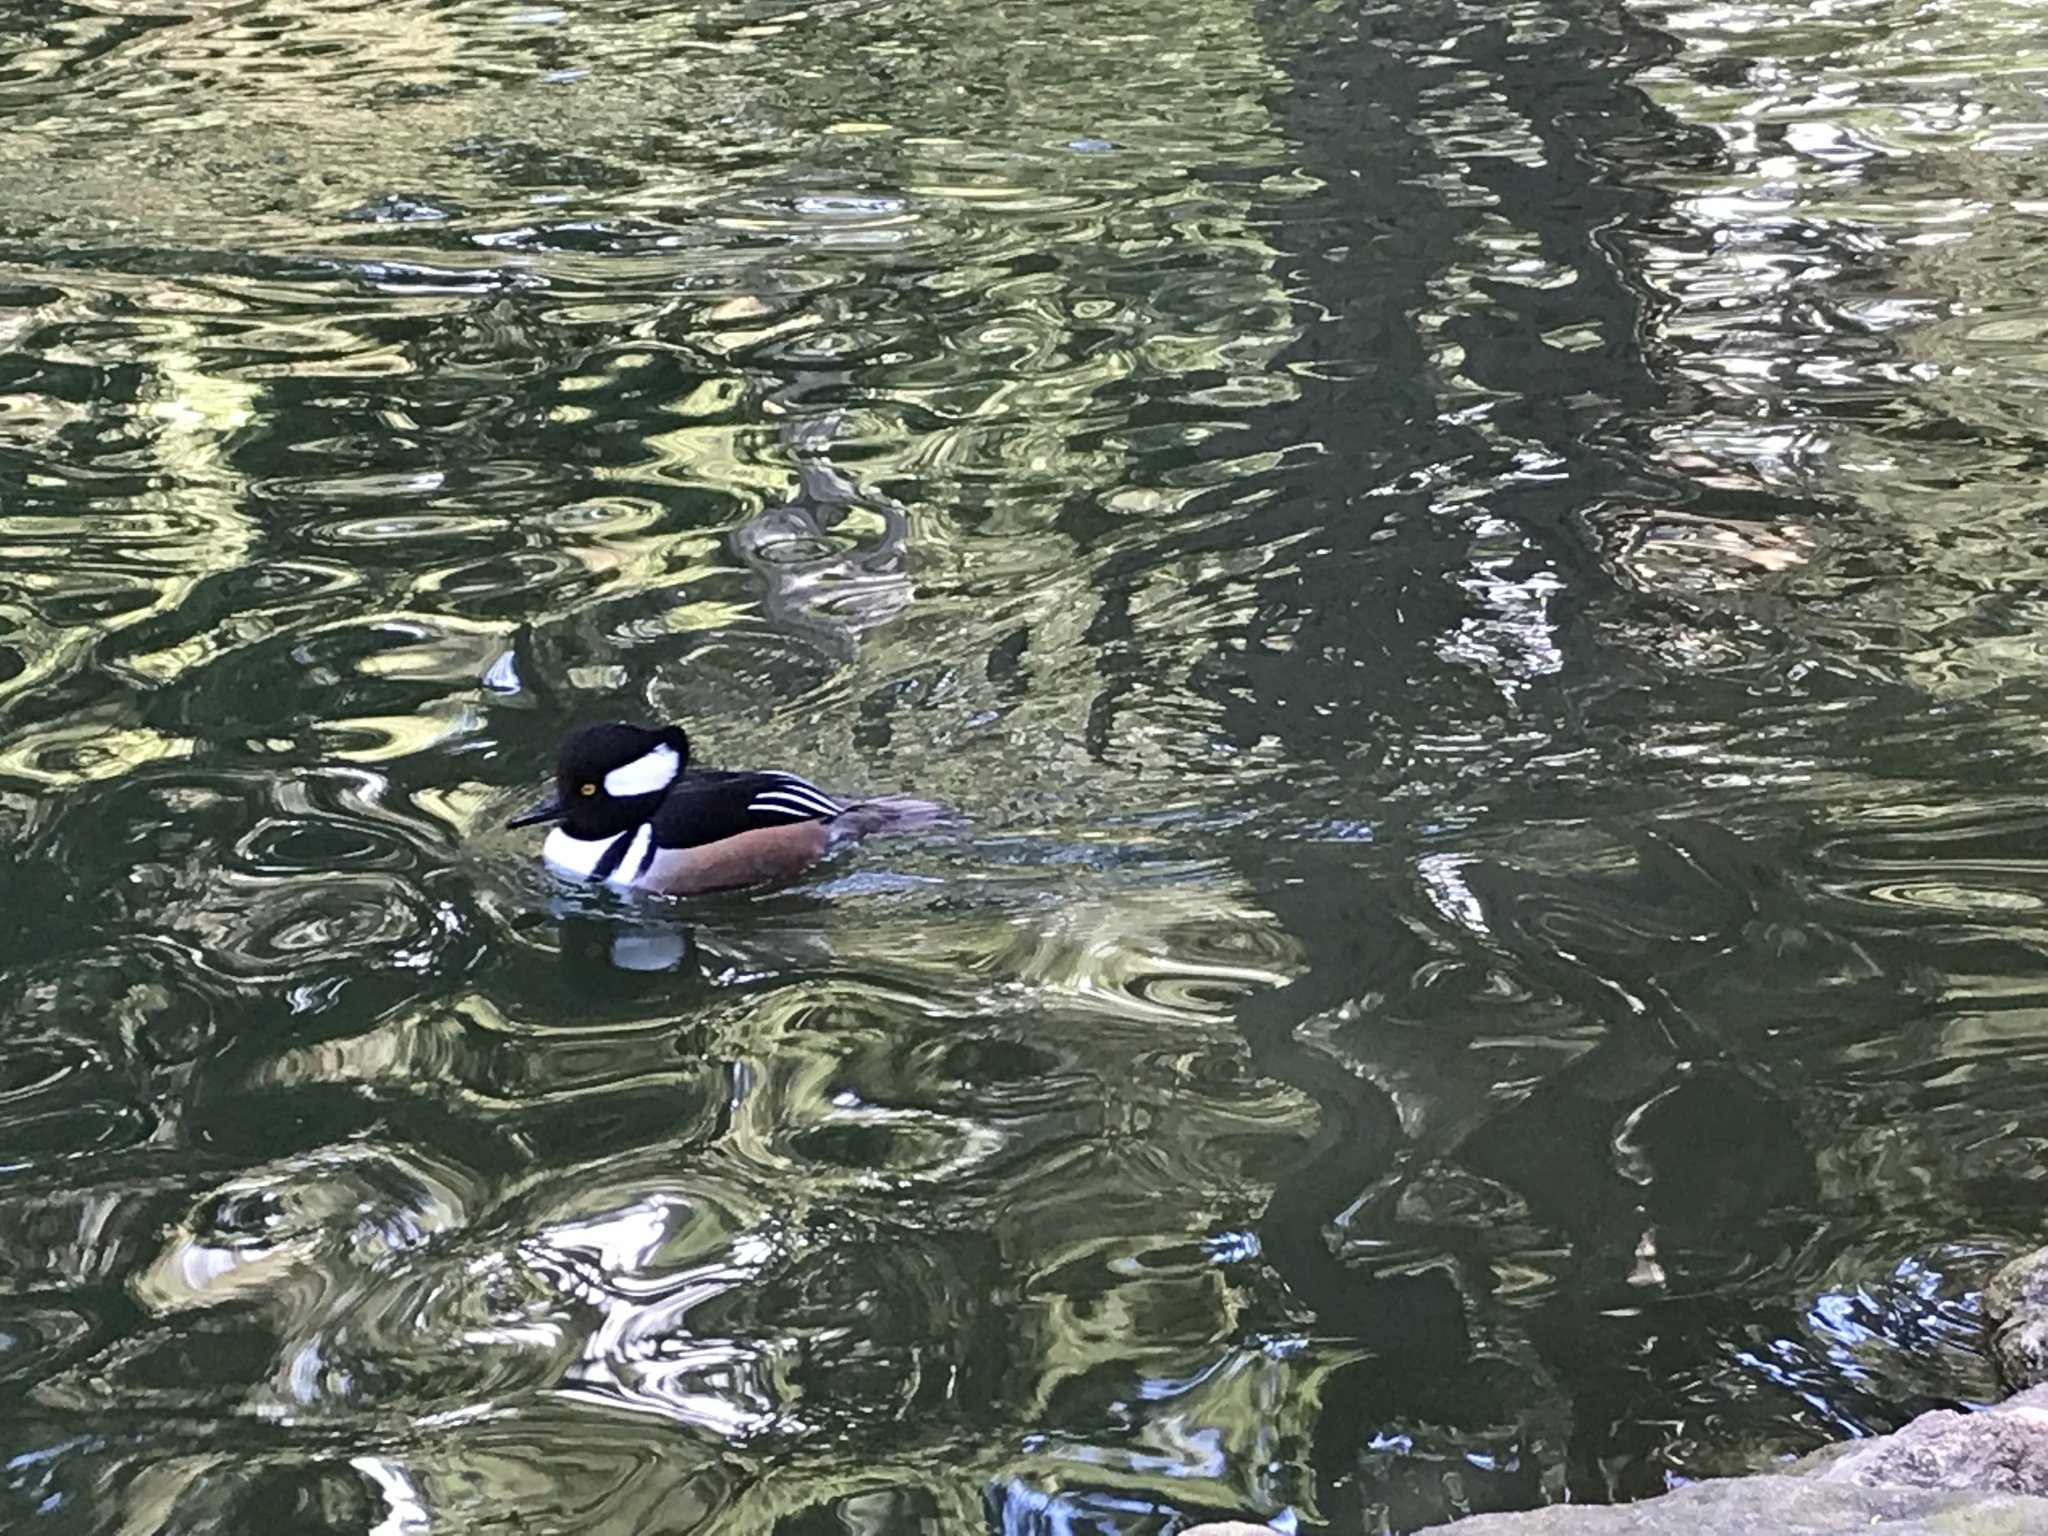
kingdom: Animalia
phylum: Chordata
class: Aves
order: Anseriformes
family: Anatidae
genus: Lophodytes
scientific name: Lophodytes cucullatus
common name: Hooded merganser
